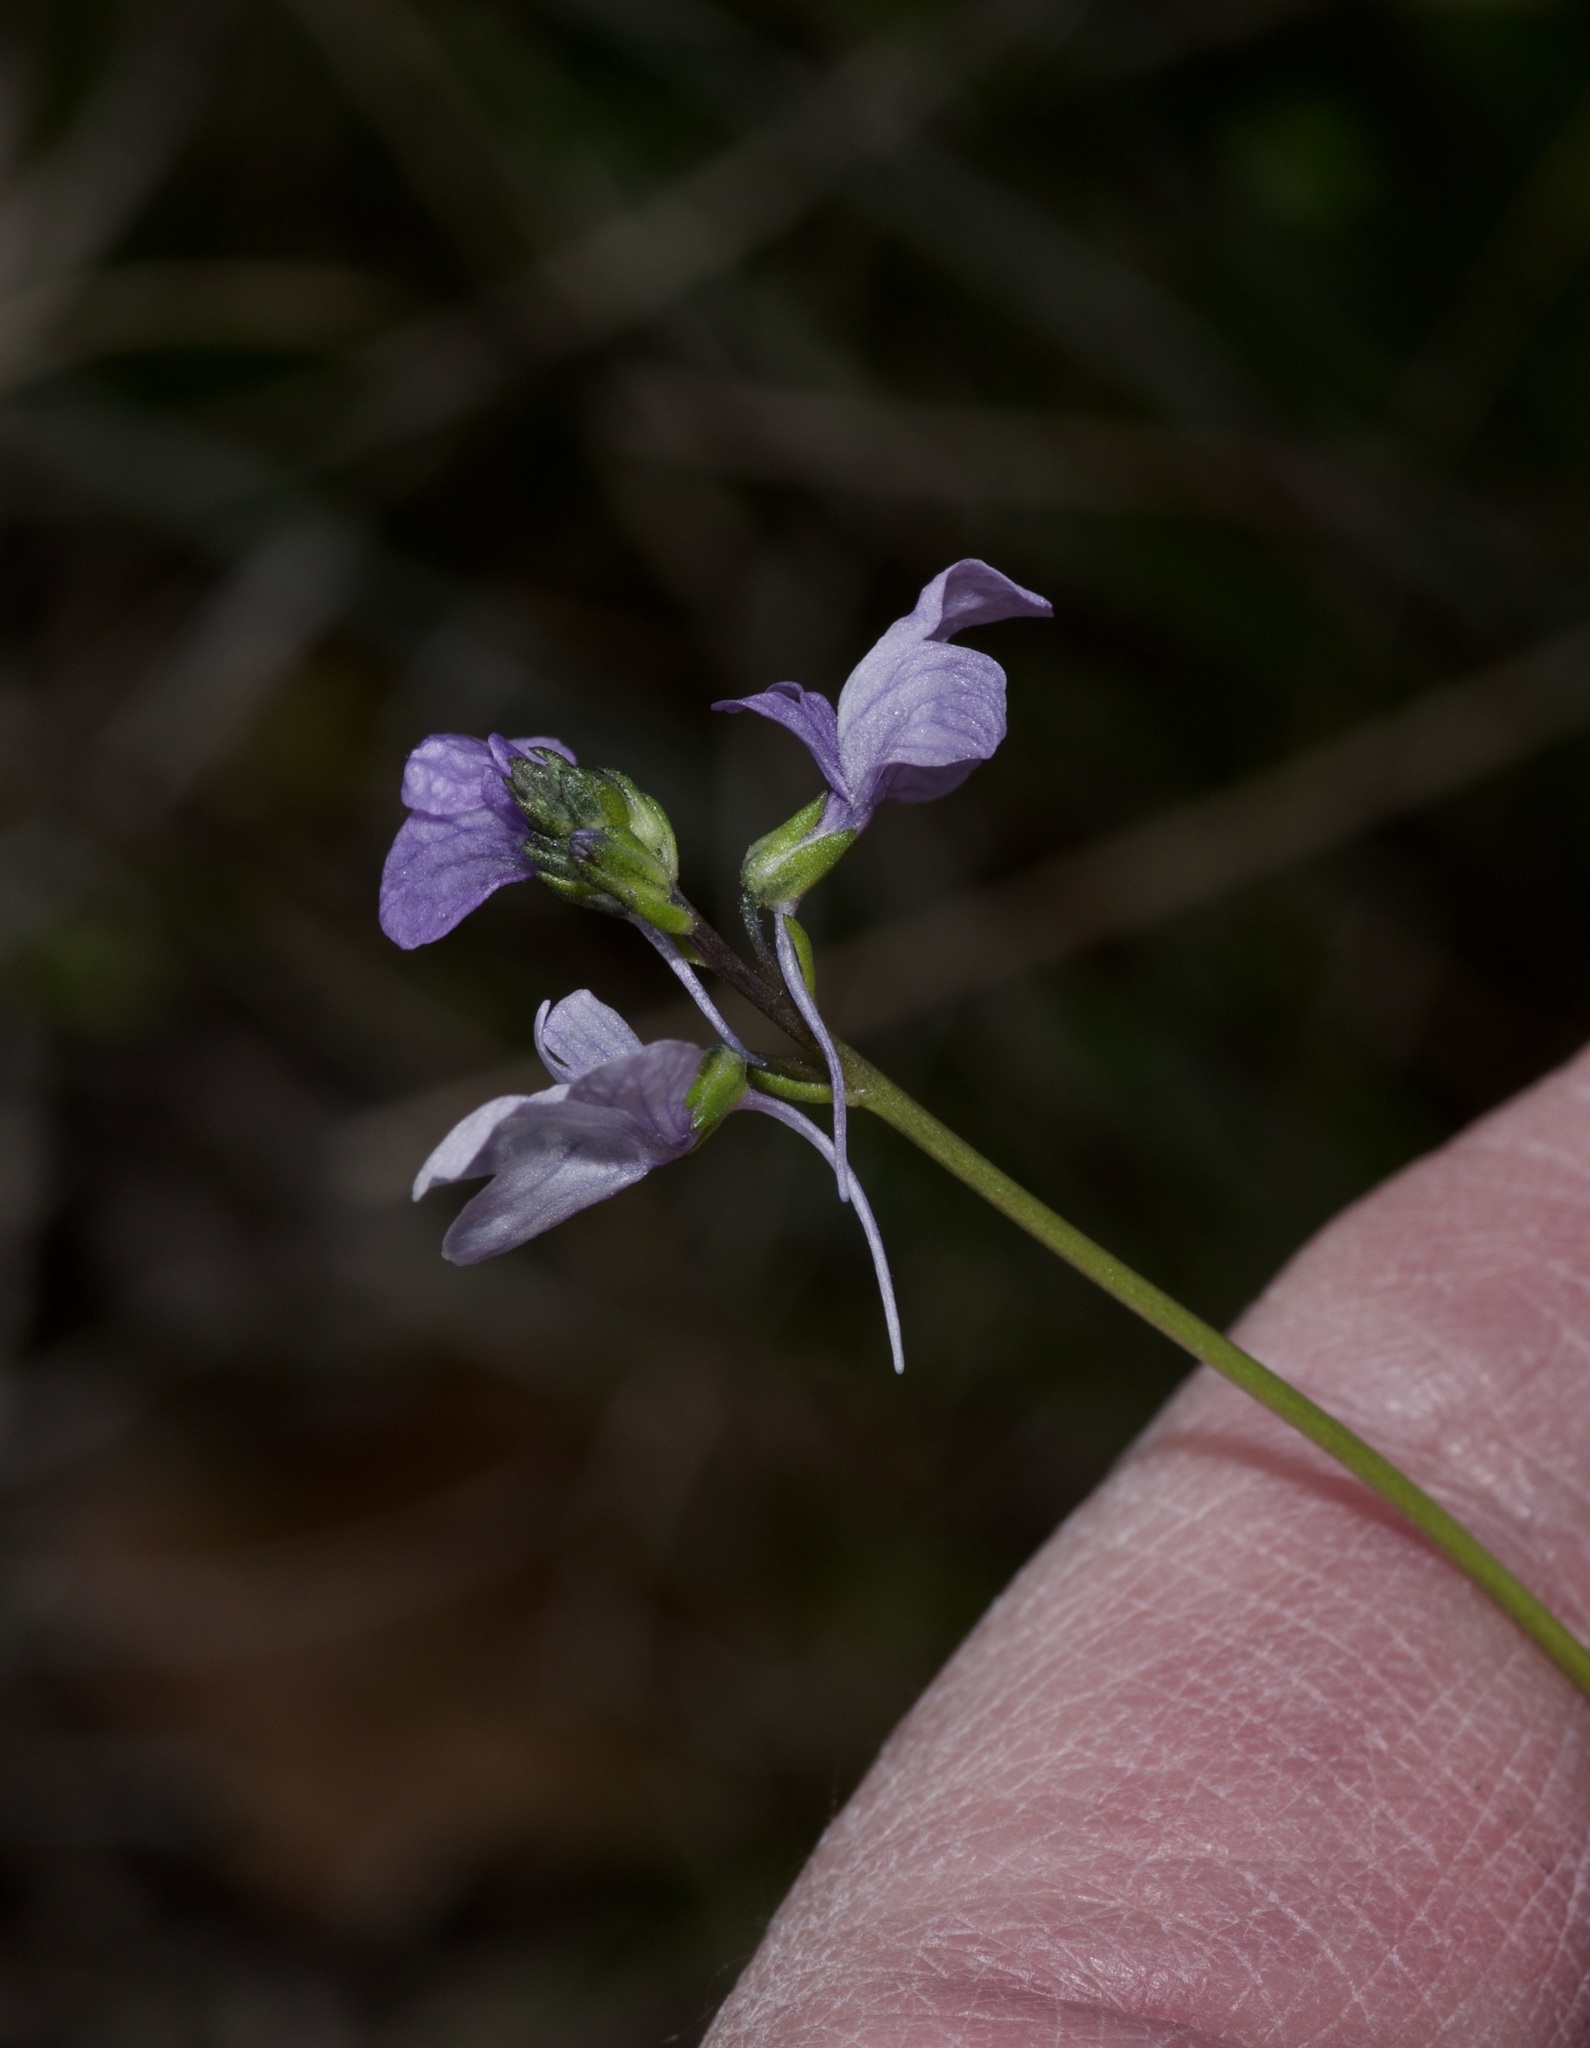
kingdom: Plantae
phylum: Tracheophyta
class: Magnoliopsida
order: Lamiales
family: Plantaginaceae
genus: Nuttallanthus
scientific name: Nuttallanthus texanus
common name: Texas toadflax
